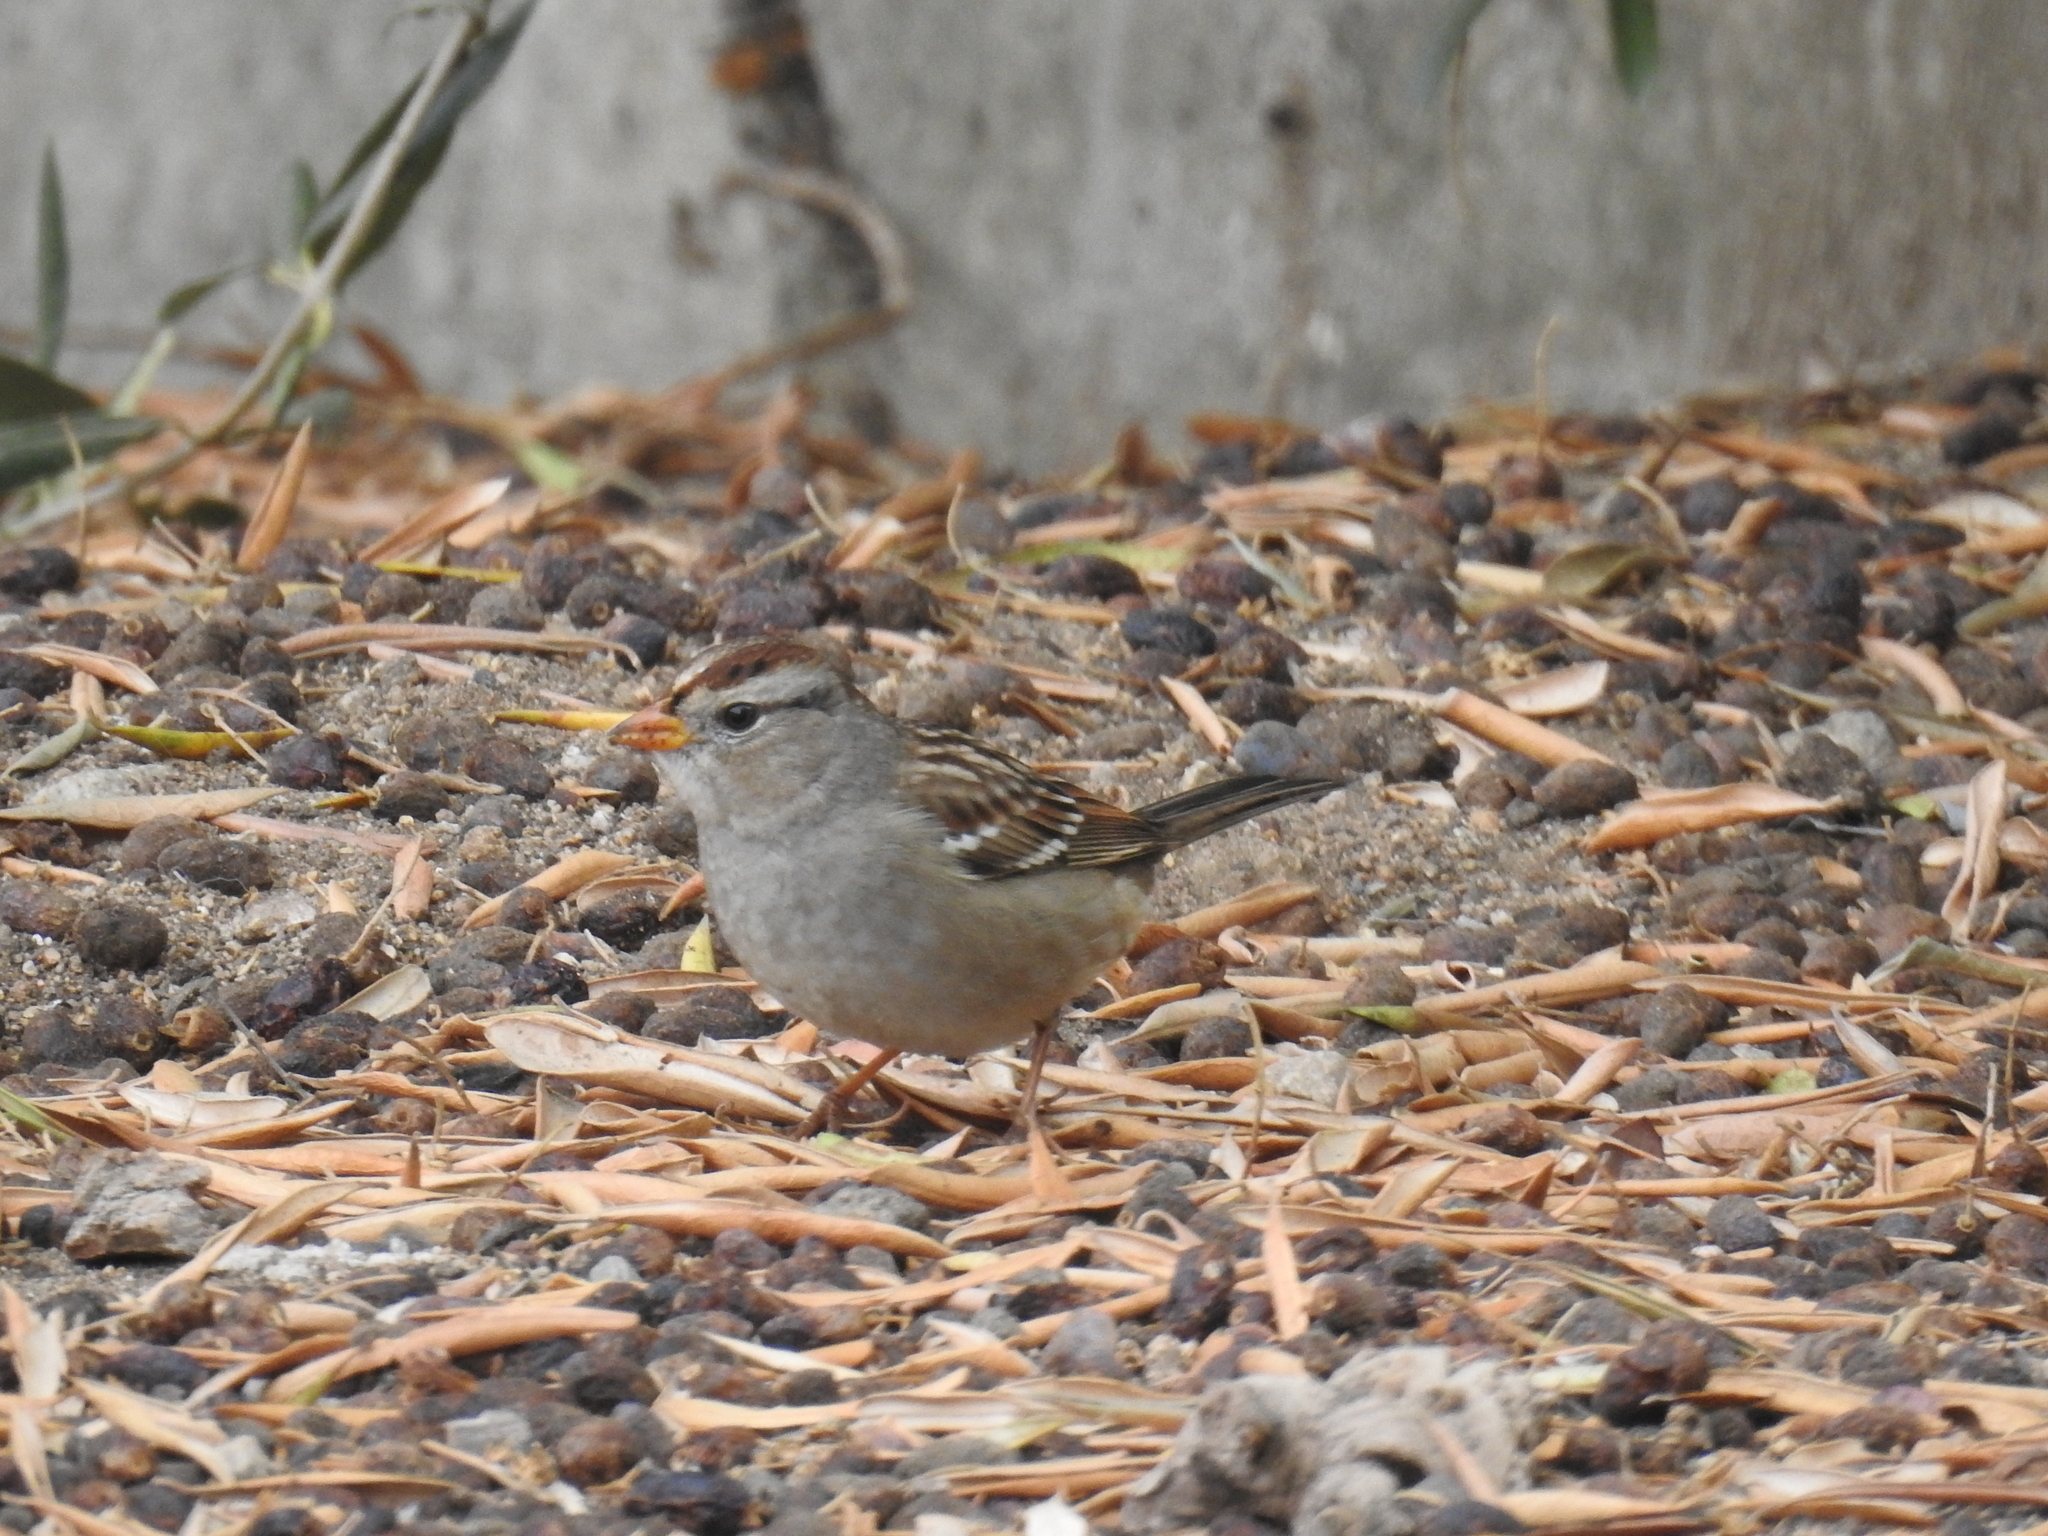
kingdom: Animalia
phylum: Chordata
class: Aves
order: Passeriformes
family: Passerellidae
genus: Zonotrichia
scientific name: Zonotrichia leucophrys
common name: White-crowned sparrow
